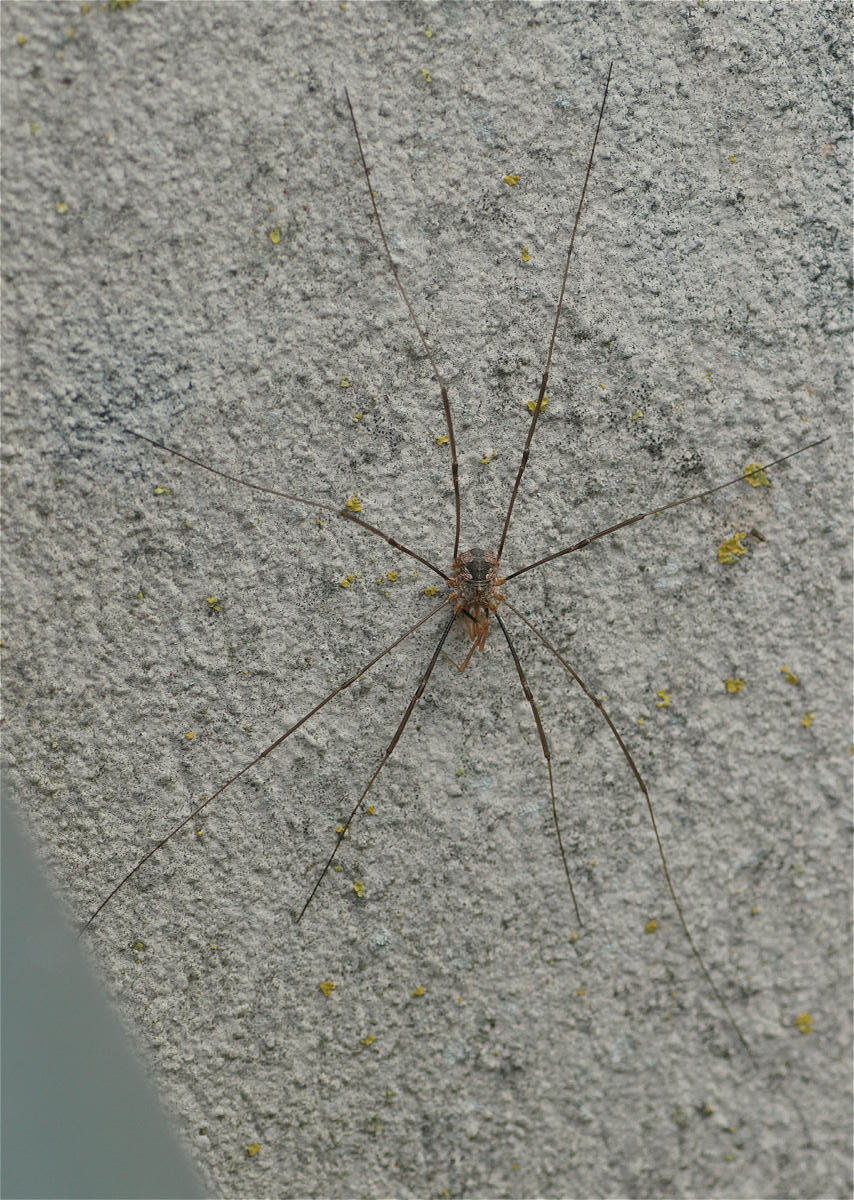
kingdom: Animalia
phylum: Arthropoda
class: Arachnida
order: Opiliones
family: Phalangiidae
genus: Phalangium
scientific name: Phalangium opilio
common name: Daddy longleg
